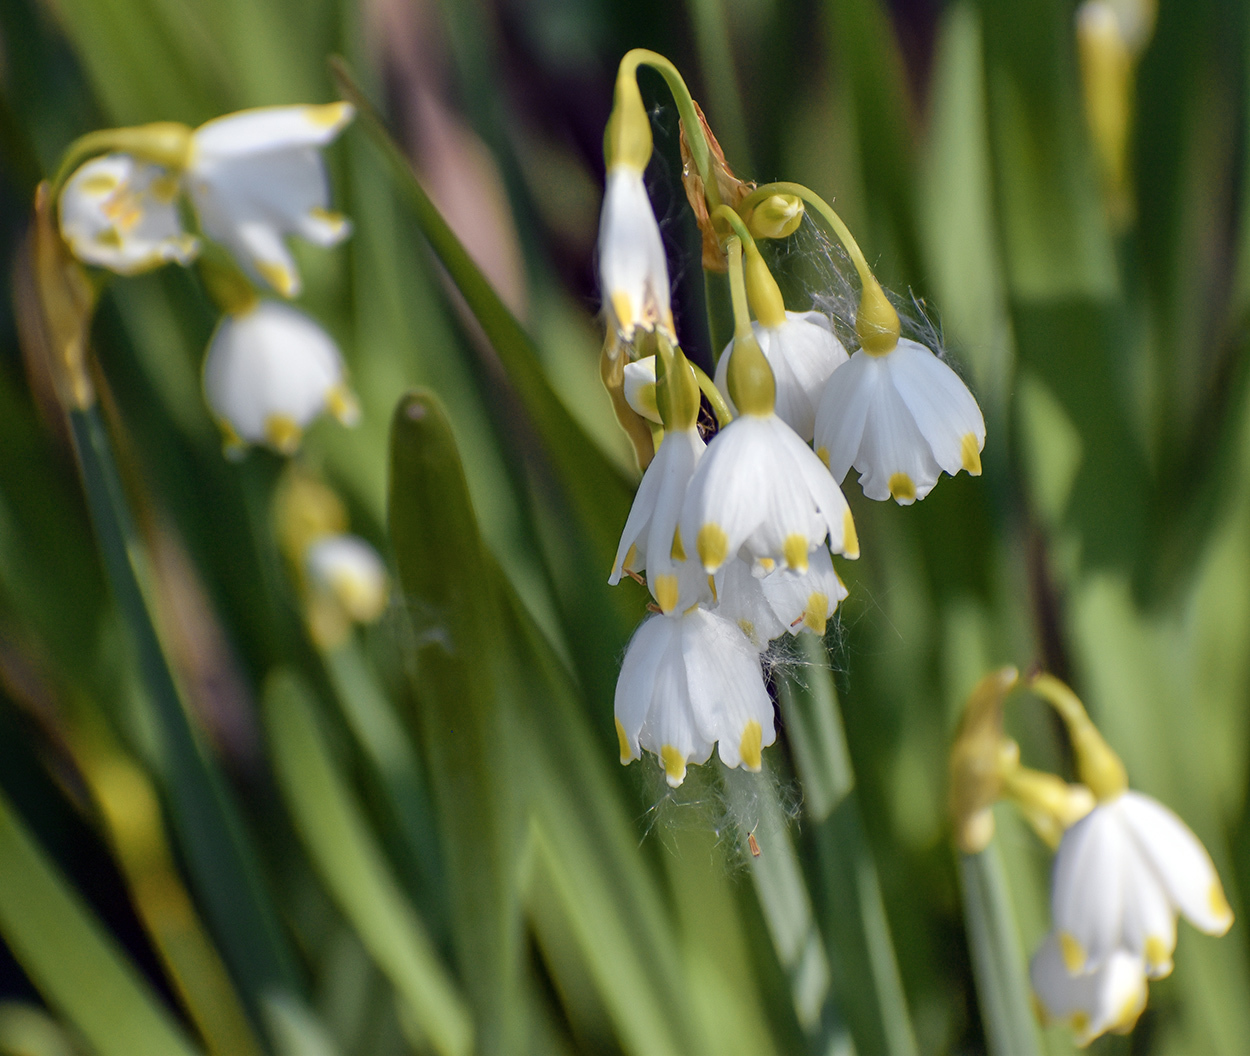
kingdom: Plantae
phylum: Tracheophyta
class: Liliopsida
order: Asparagales
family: Amaryllidaceae
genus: Leucojum
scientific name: Leucojum aestivum
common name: Summer snowflake
